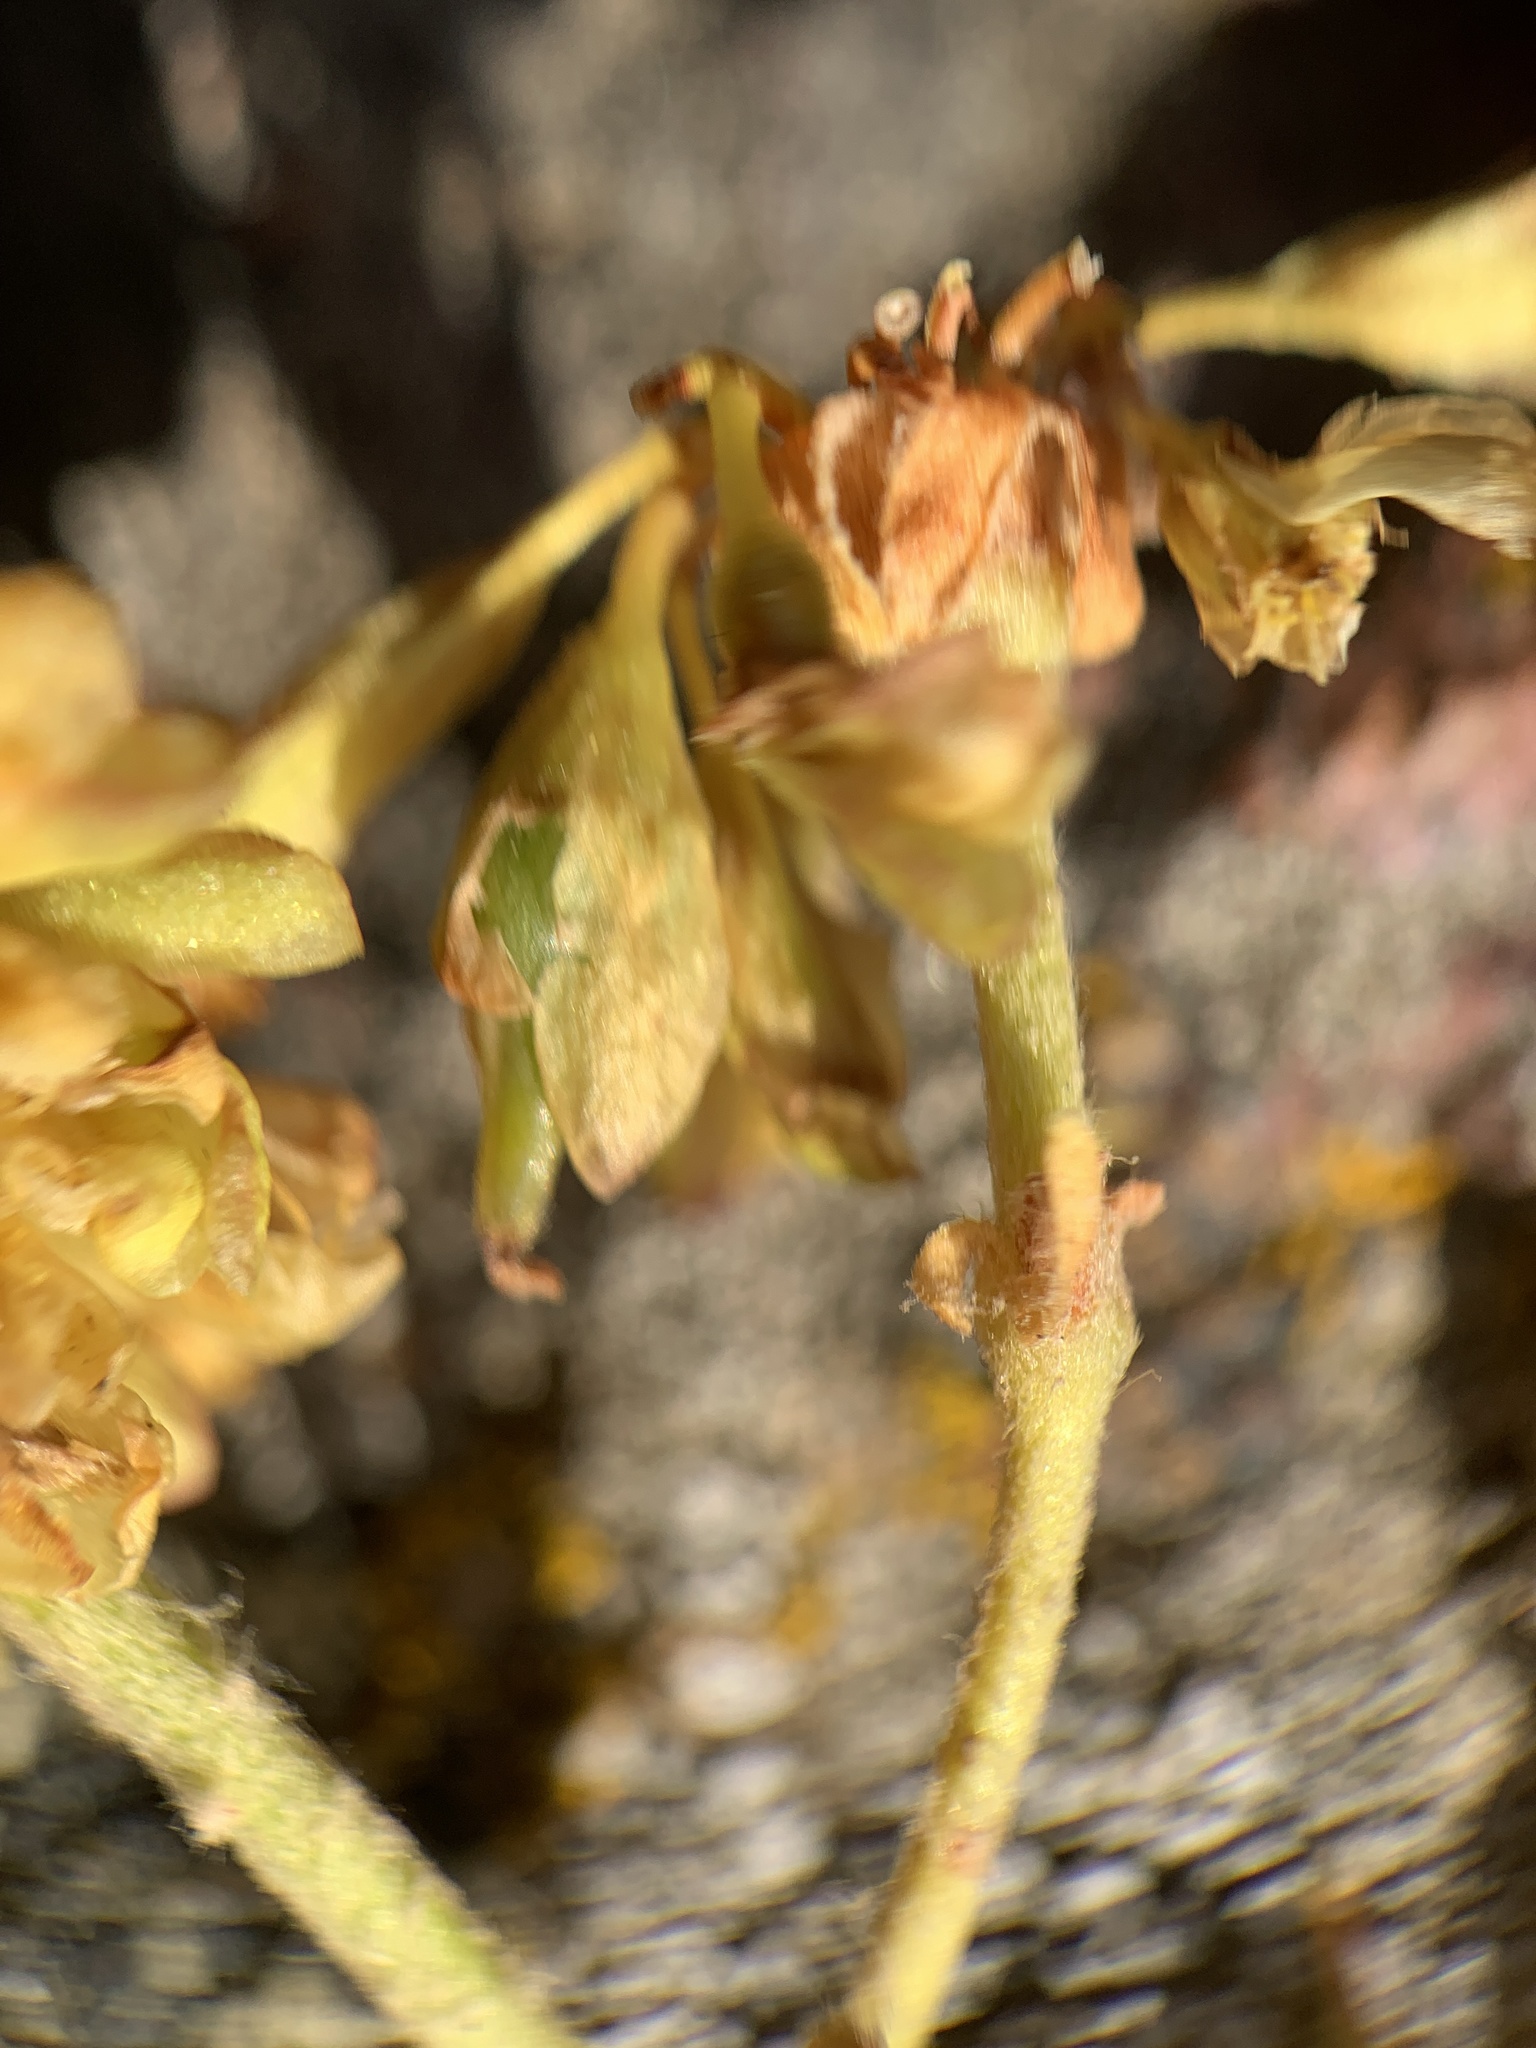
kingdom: Plantae
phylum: Tracheophyta
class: Magnoliopsida
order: Caryophyllales
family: Polygonaceae
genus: Eriogonum
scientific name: Eriogonum umbellatum
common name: Sulfur-buckwheat
